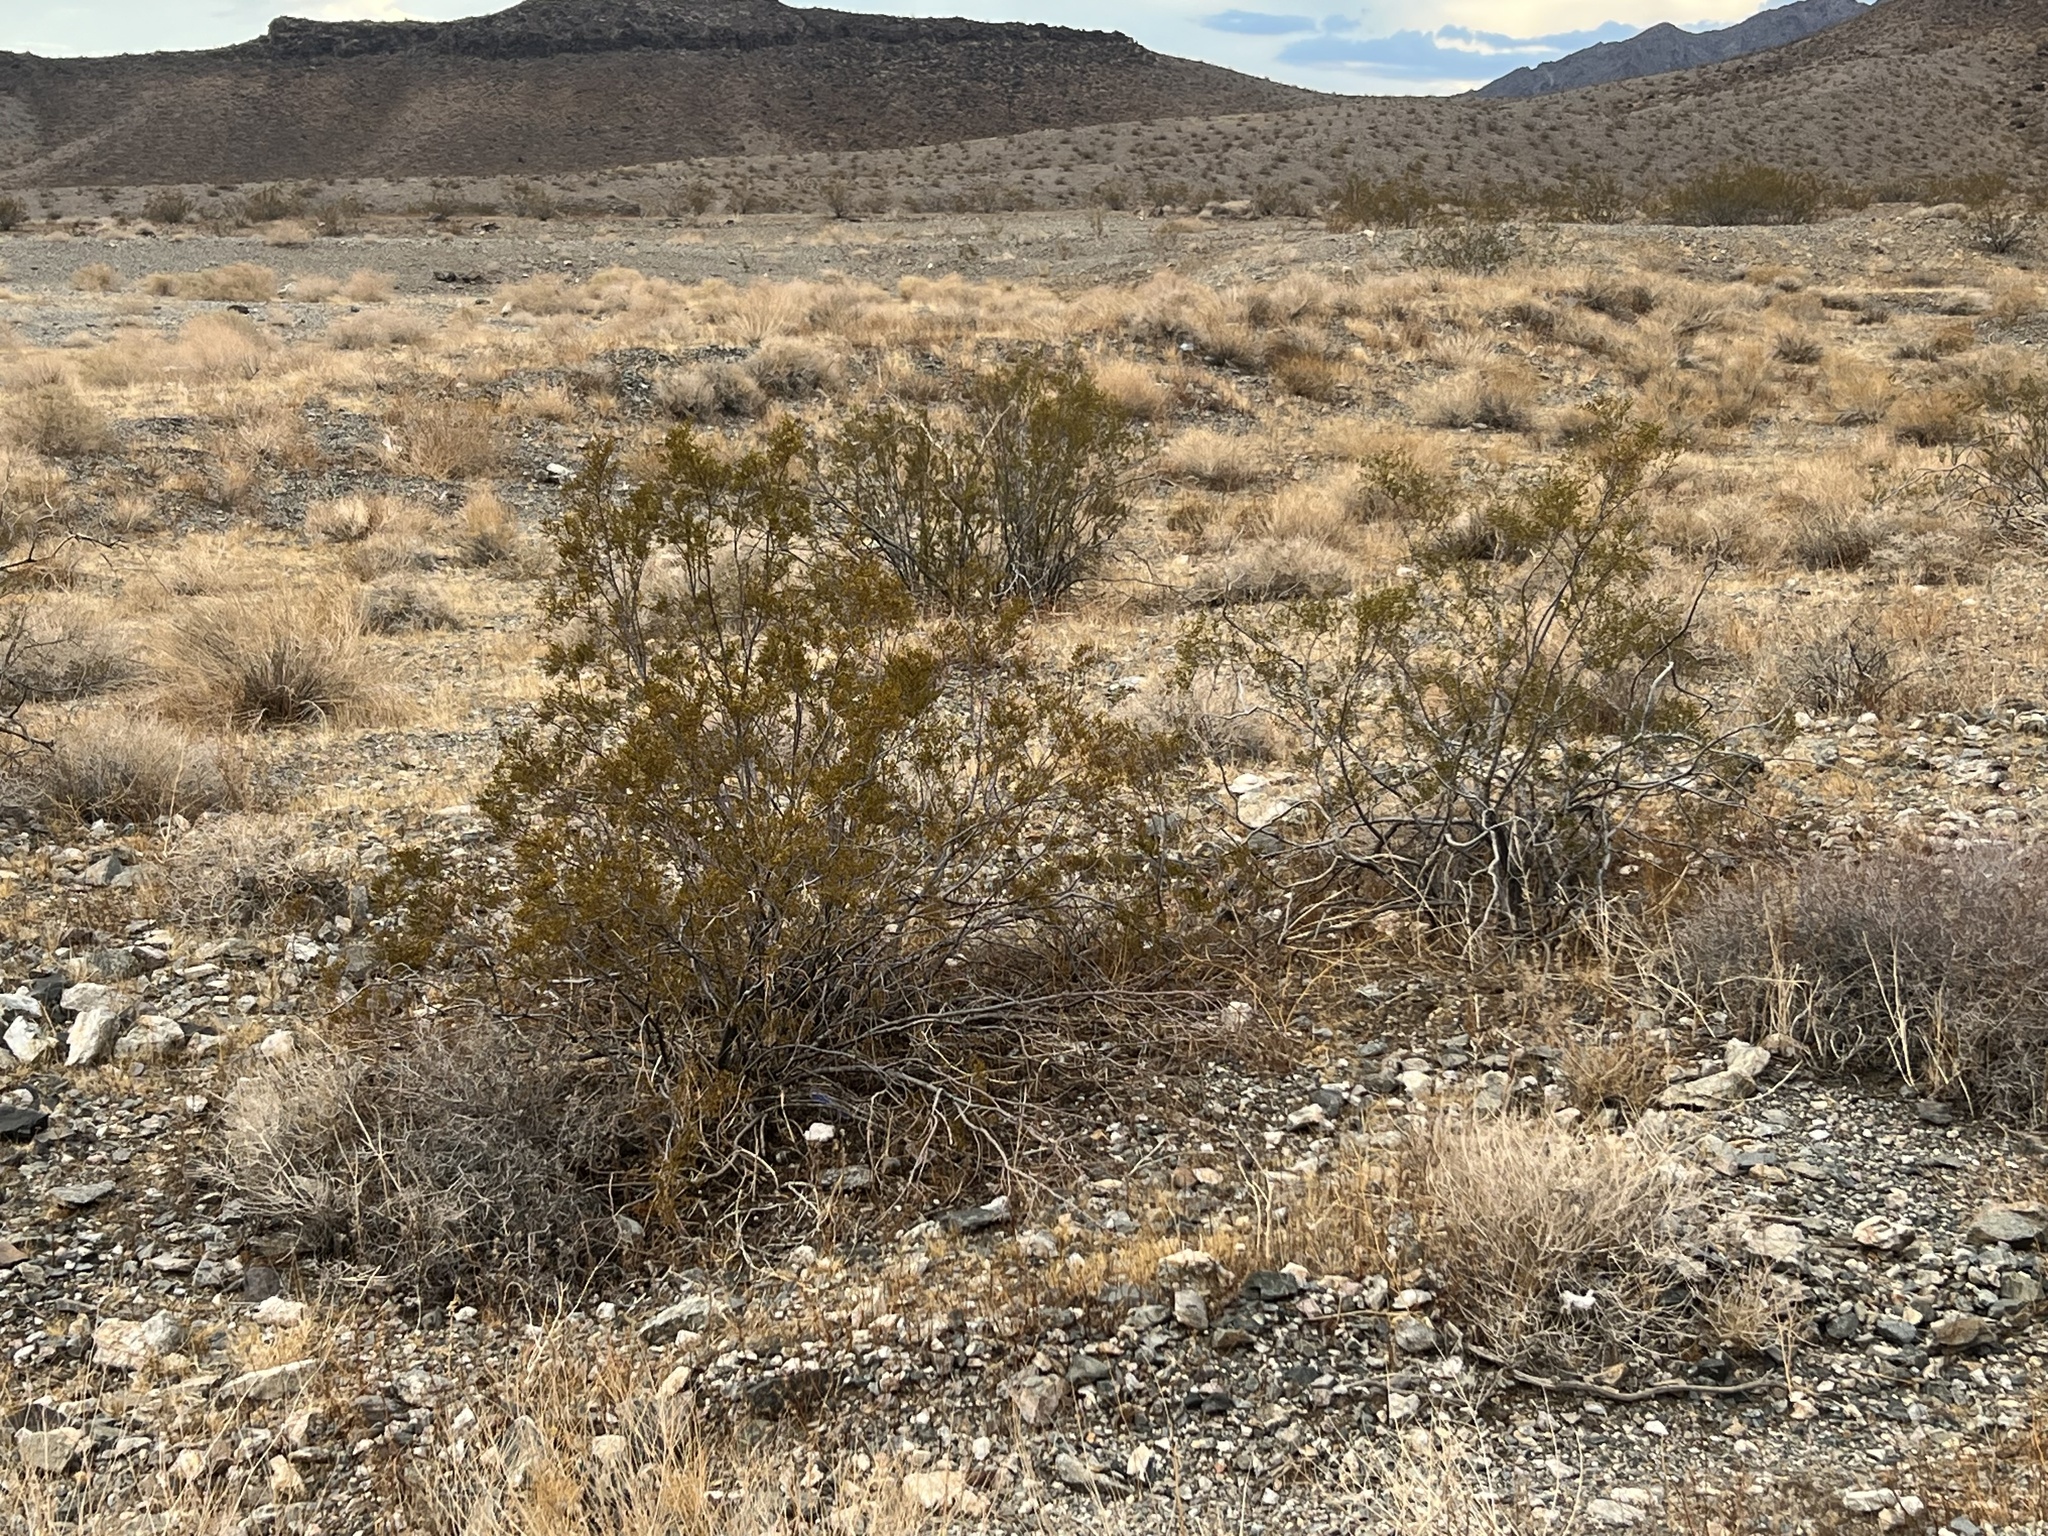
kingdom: Plantae
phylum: Tracheophyta
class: Magnoliopsida
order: Zygophyllales
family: Zygophyllaceae
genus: Larrea
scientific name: Larrea tridentata
